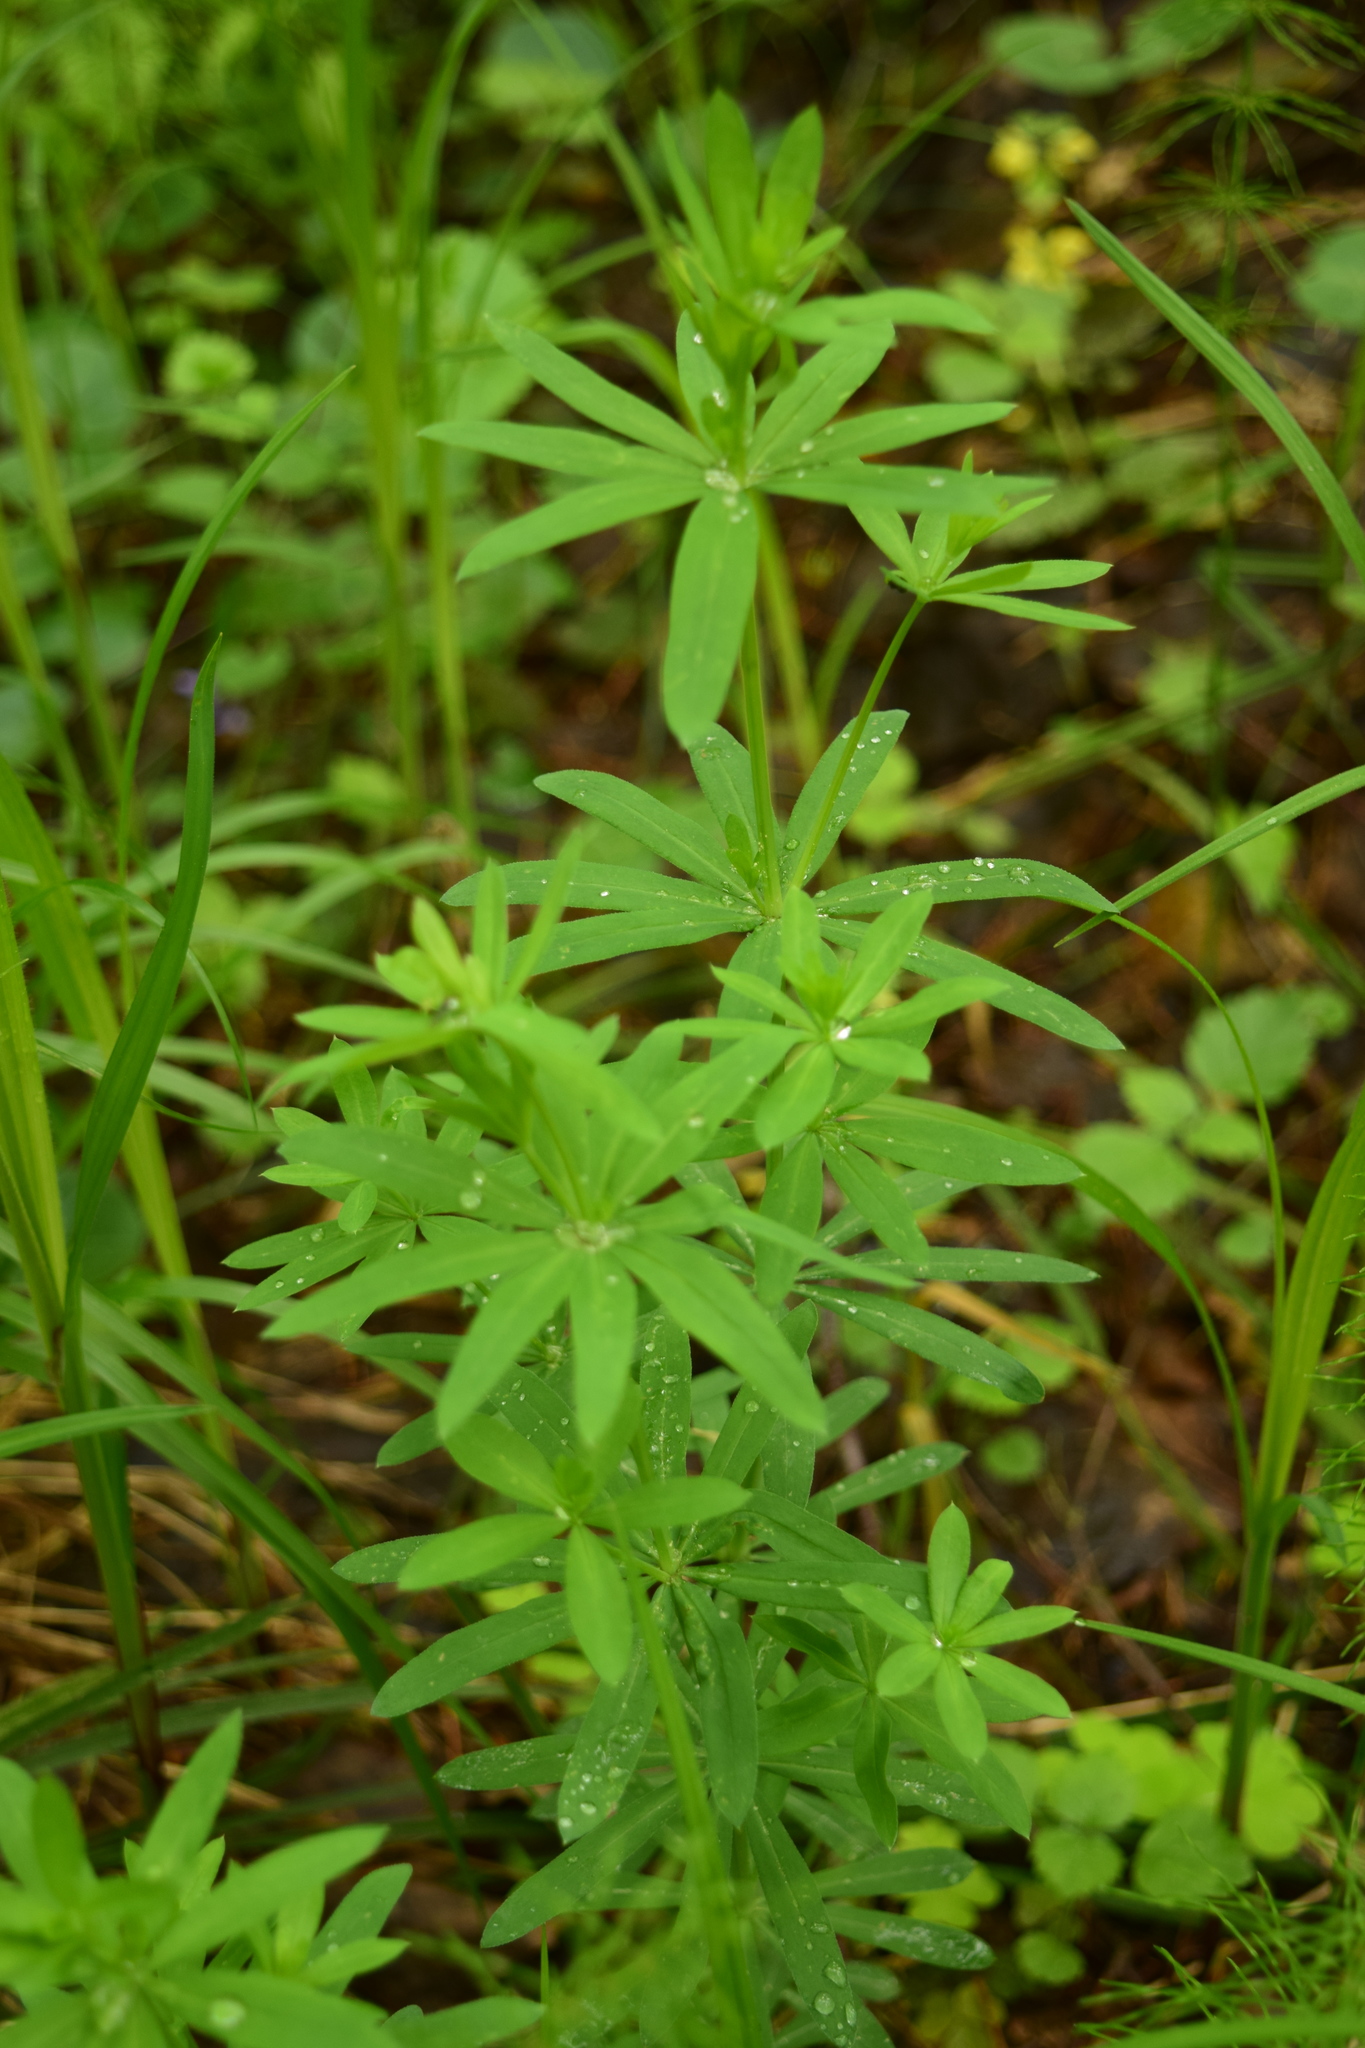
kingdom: Plantae
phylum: Tracheophyta
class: Magnoliopsida
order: Gentianales
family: Rubiaceae
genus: Galium
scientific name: Galium intermedium
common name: Bedstraw
